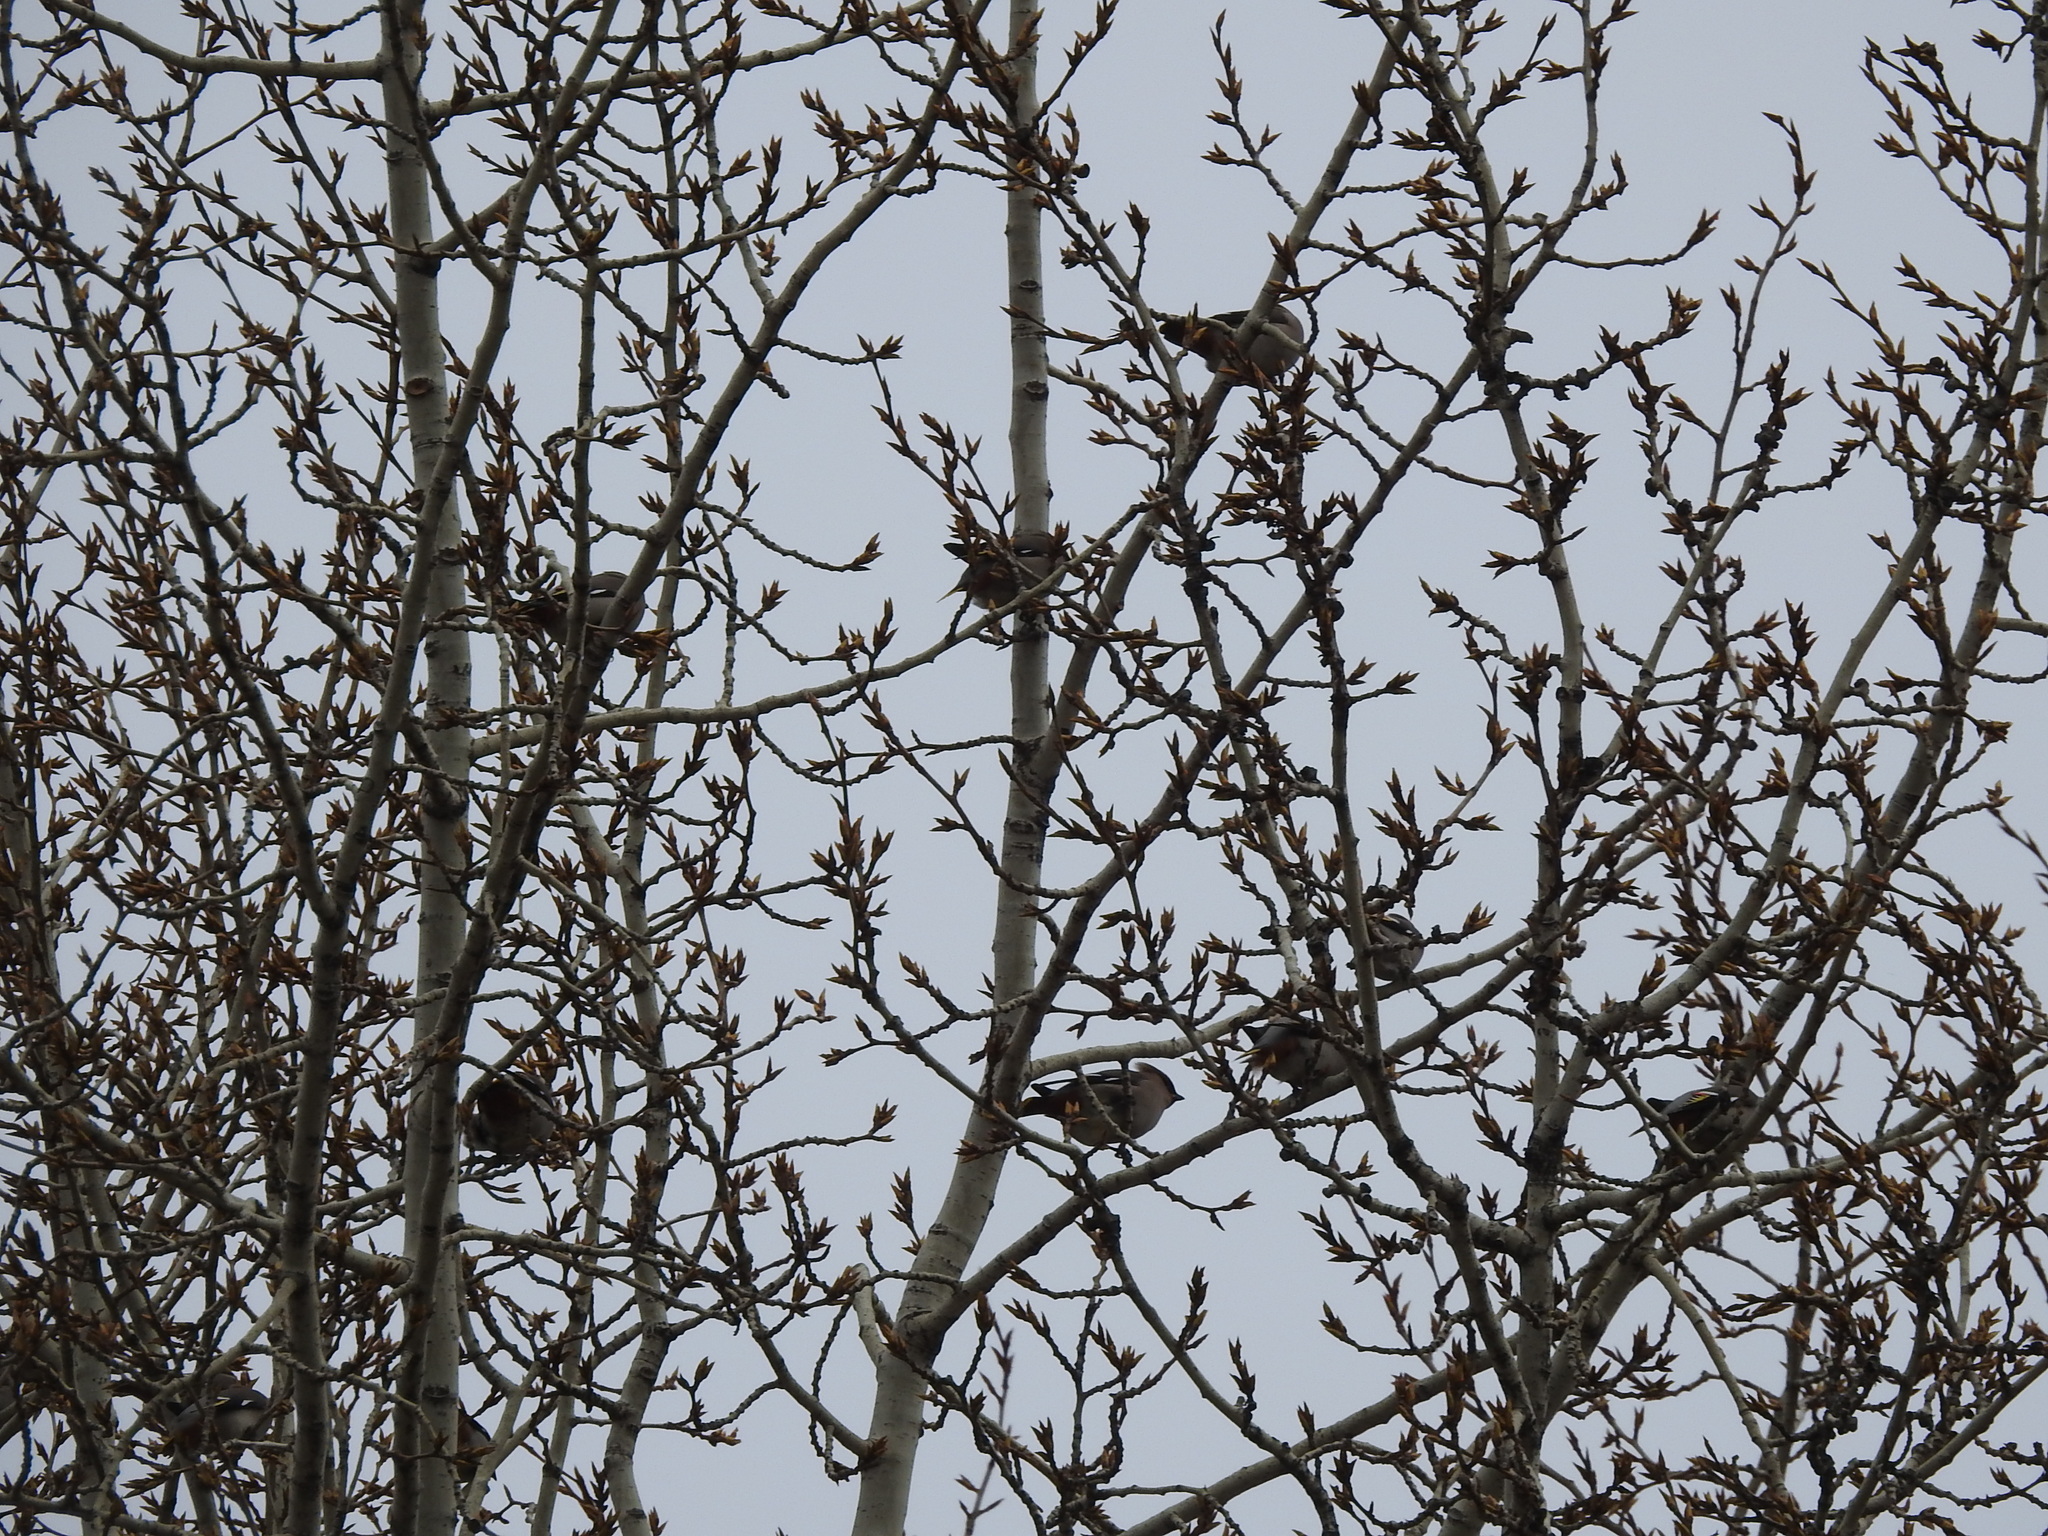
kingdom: Animalia
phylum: Chordata
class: Aves
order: Passeriformes
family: Bombycillidae
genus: Bombycilla
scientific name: Bombycilla garrulus
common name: Bohemian waxwing
